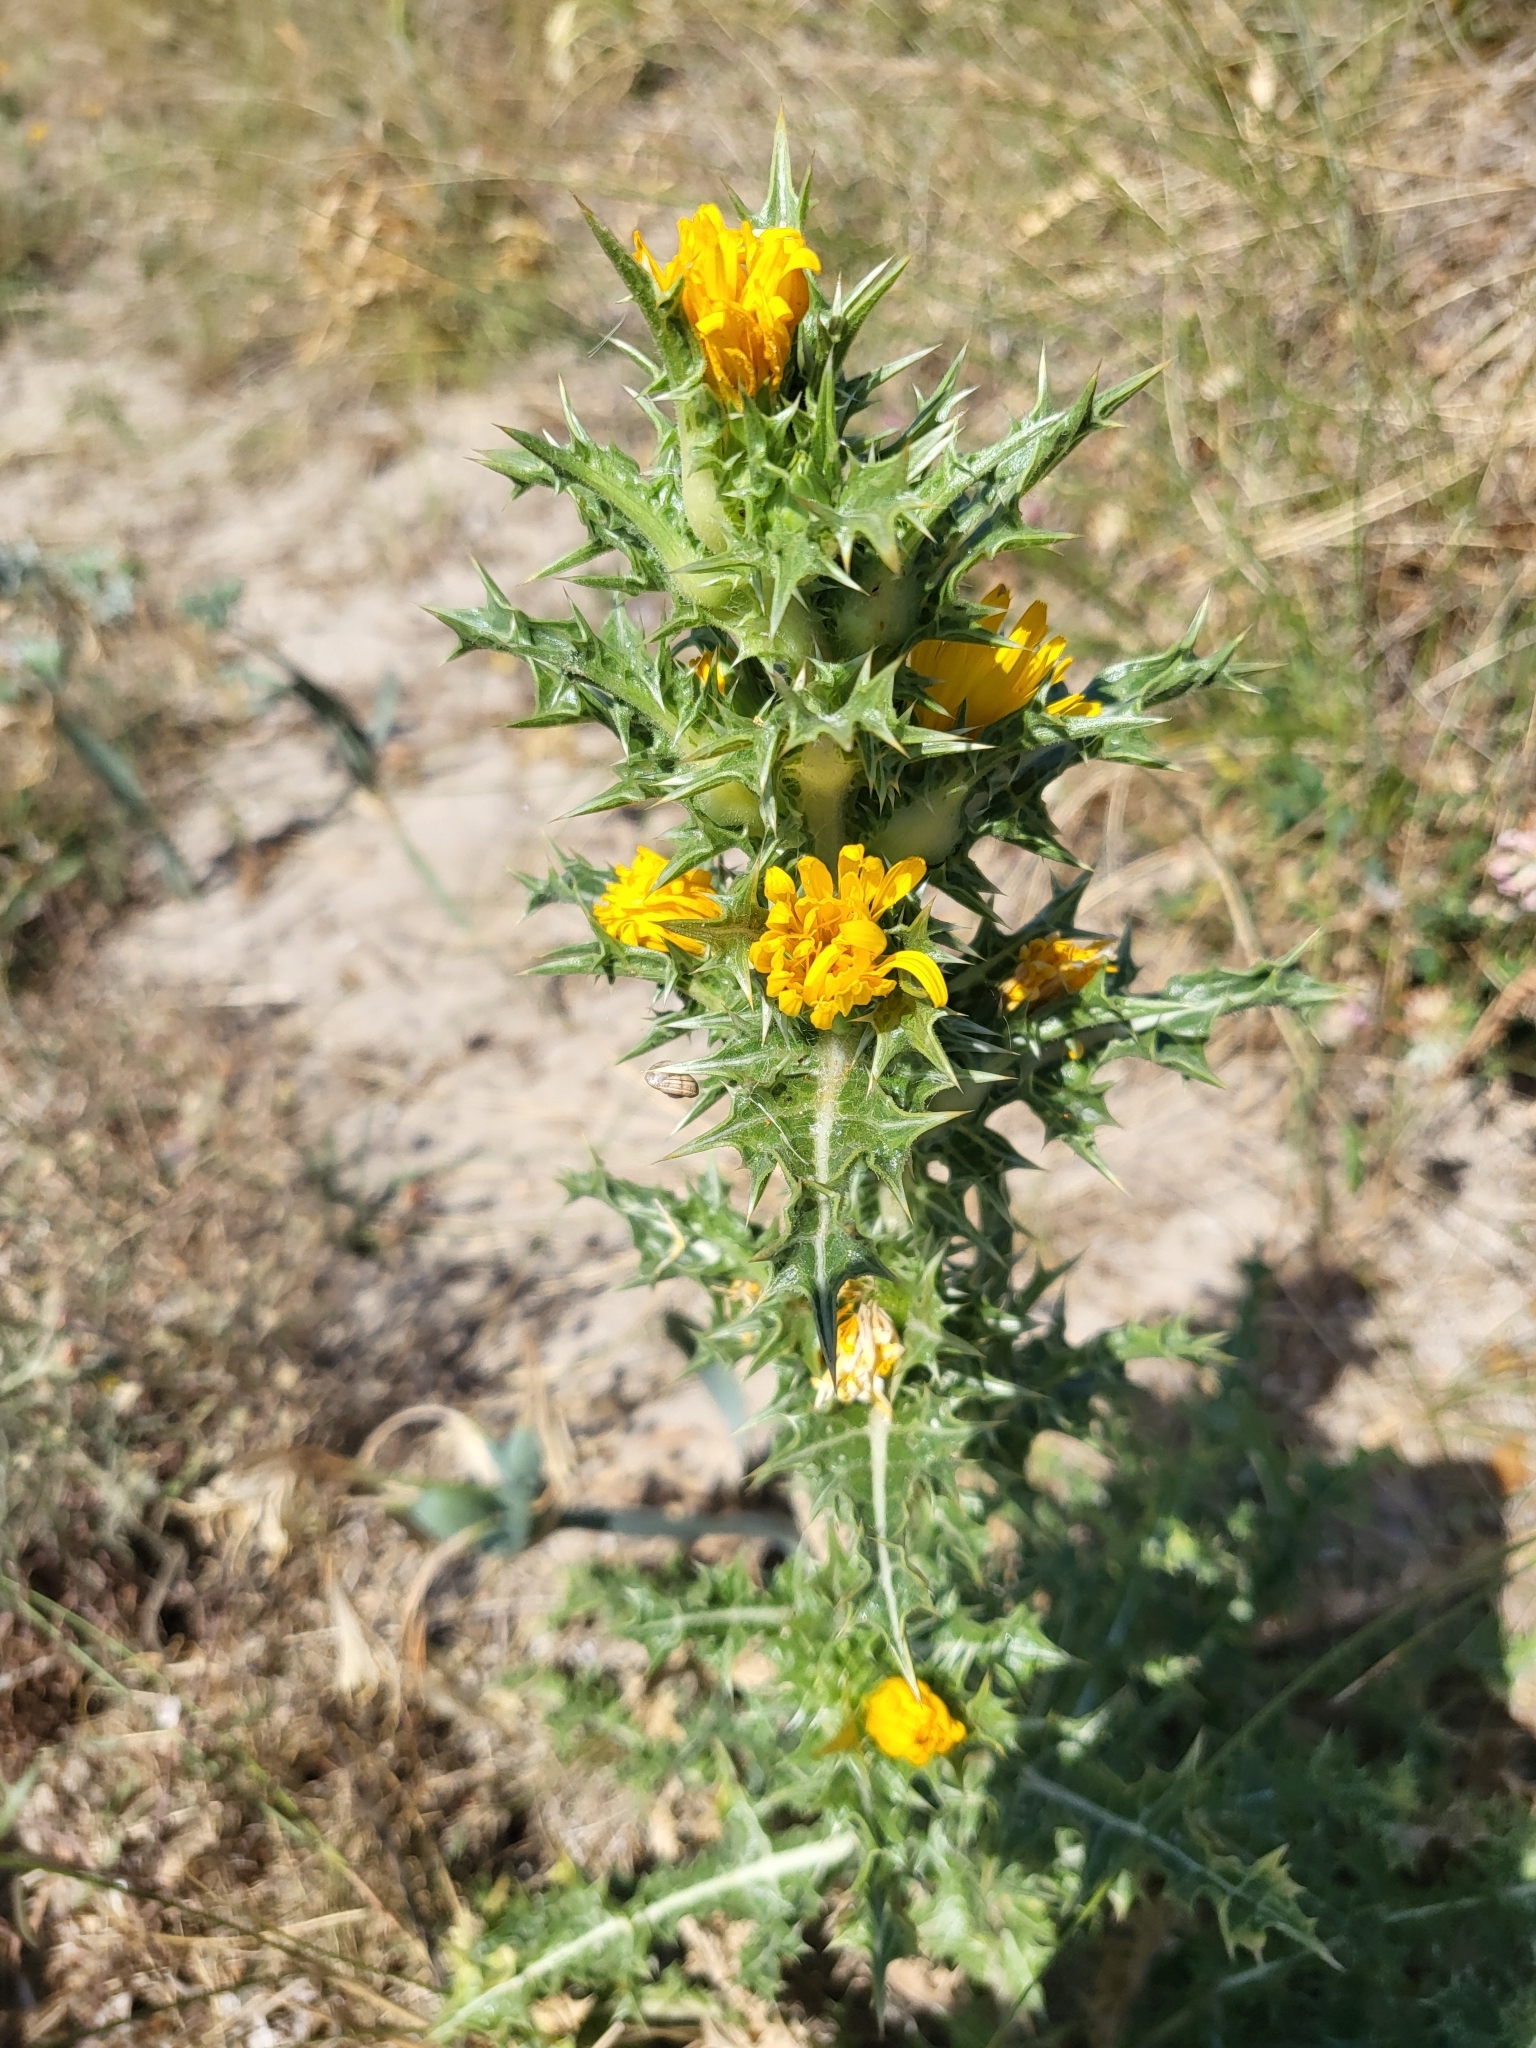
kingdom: Plantae
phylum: Tracheophyta
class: Magnoliopsida
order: Asterales
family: Asteraceae
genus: Scolymus
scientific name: Scolymus hispanicus
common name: Golden thistle
